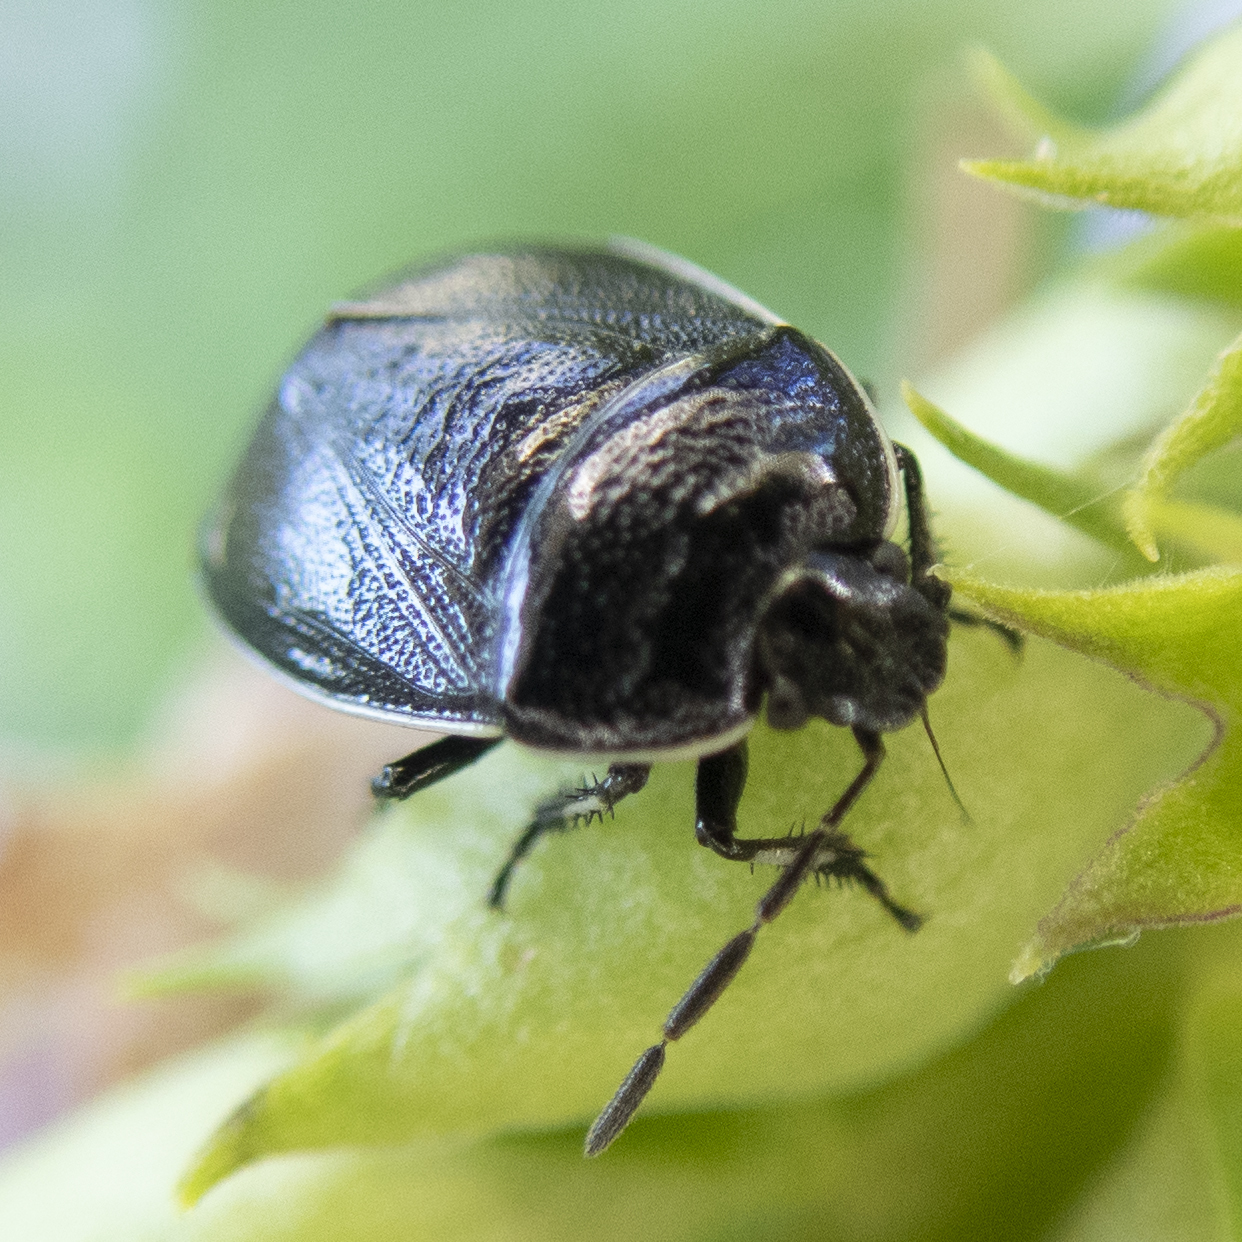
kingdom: Animalia
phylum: Arthropoda
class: Insecta
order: Hemiptera
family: Cydnidae
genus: Sehirus
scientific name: Sehirus cinctus
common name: White-margined burrower bug
